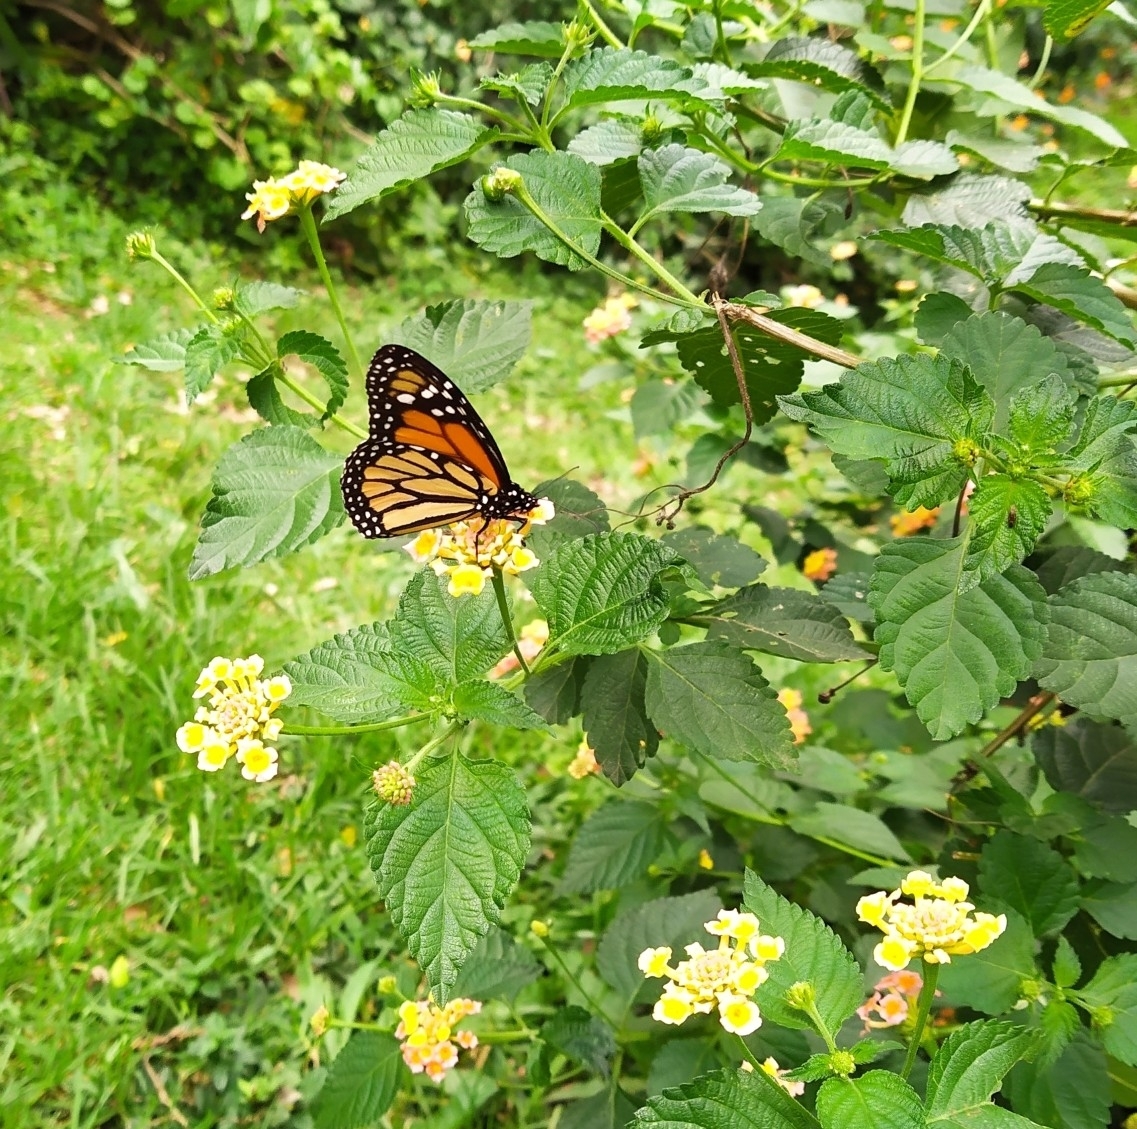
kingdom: Animalia
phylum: Arthropoda
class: Insecta
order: Lepidoptera
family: Nymphalidae
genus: Danaus
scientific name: Danaus plexippus
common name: Monarch
